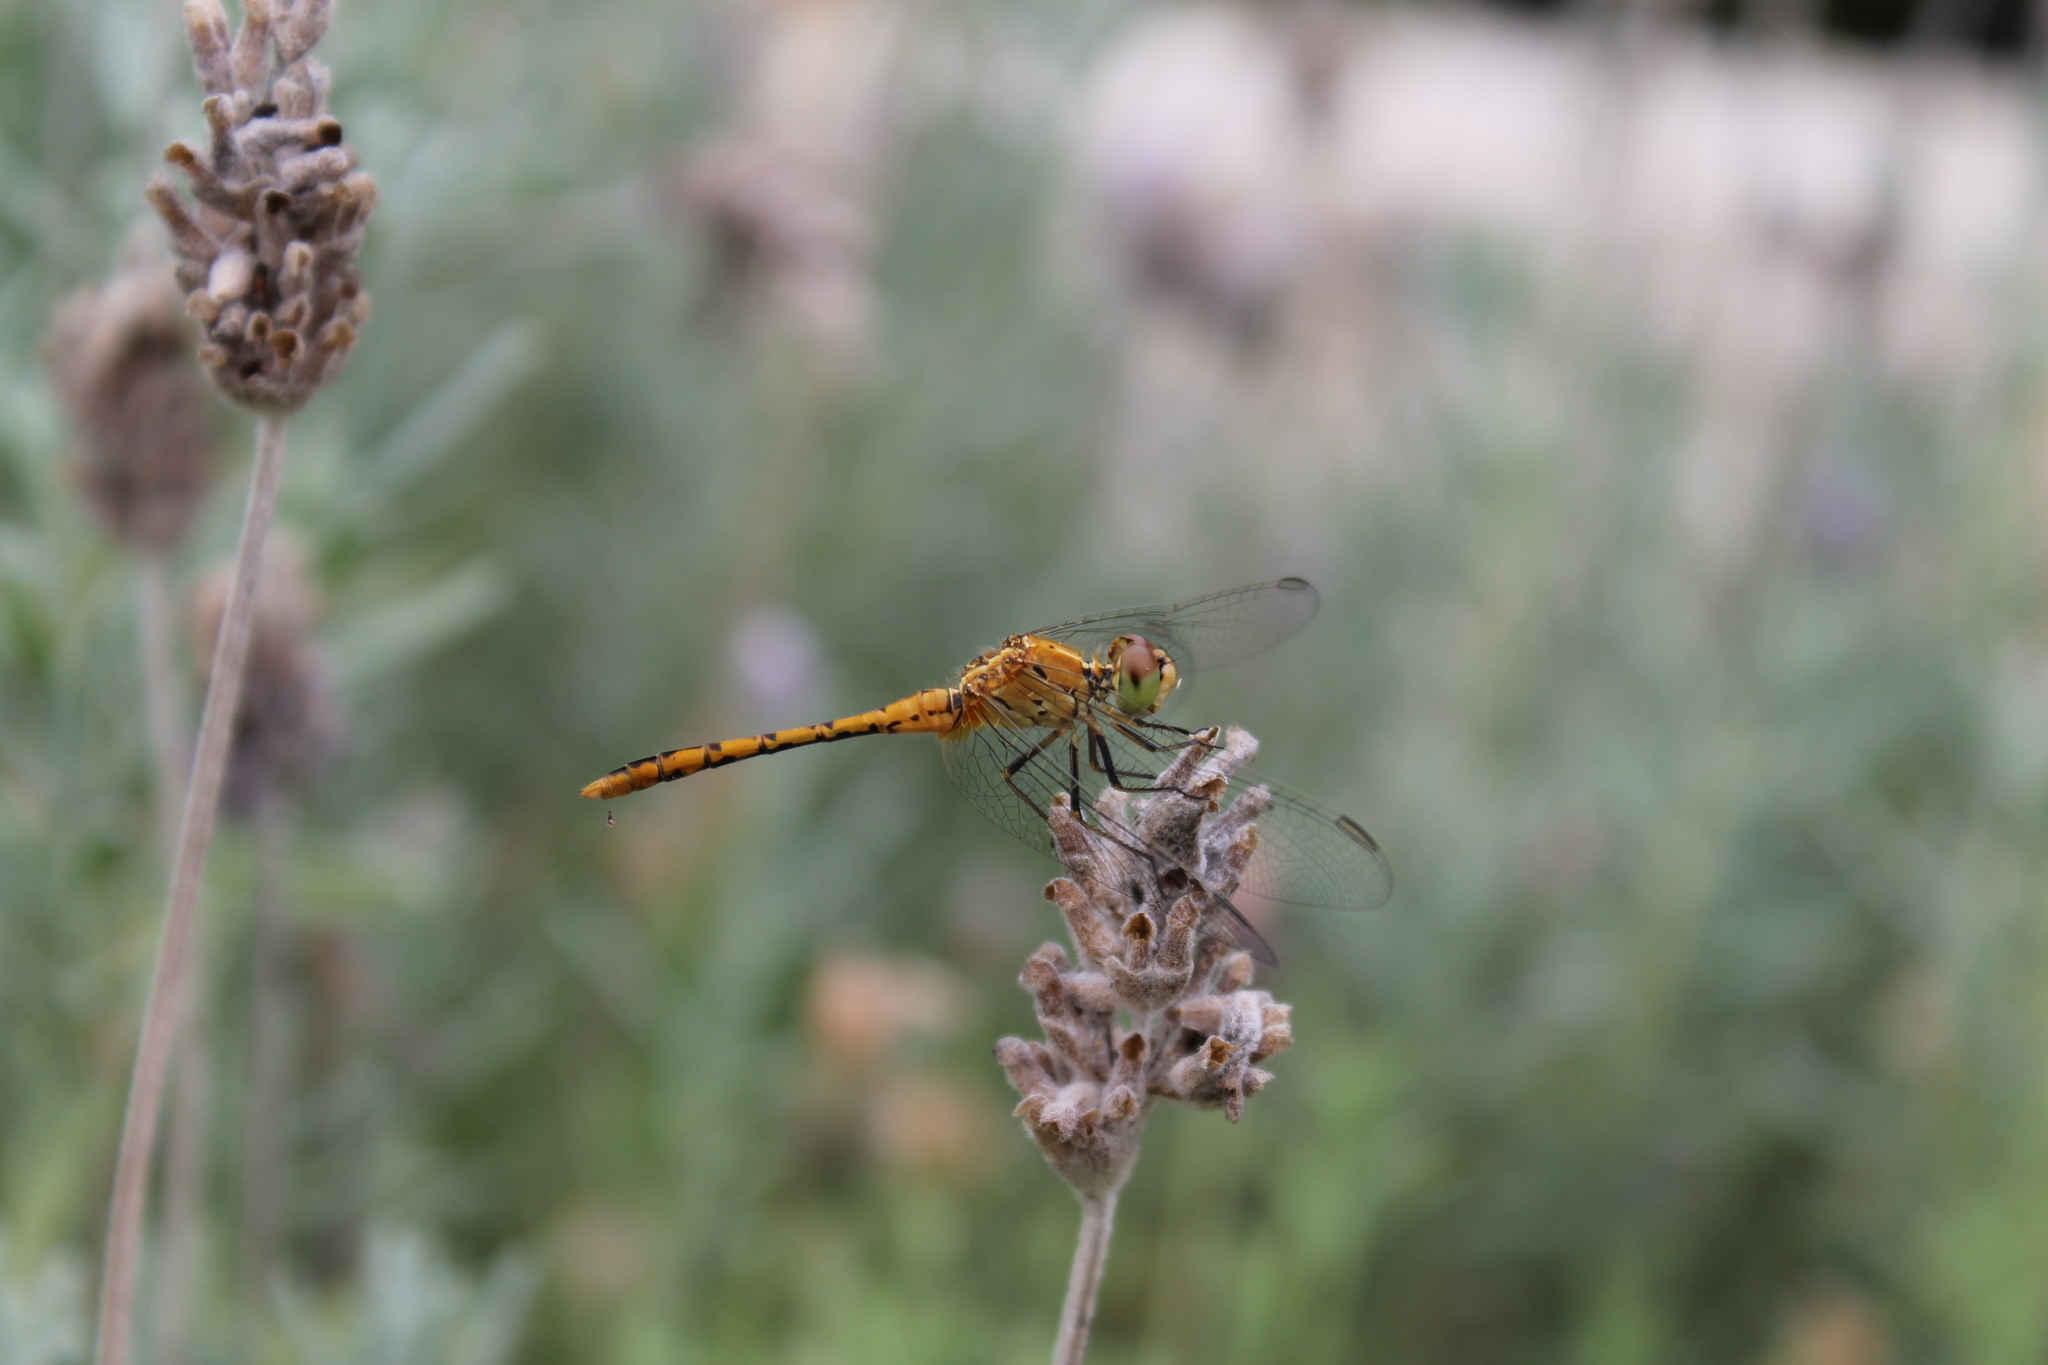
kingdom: Animalia
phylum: Arthropoda
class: Insecta
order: Odonata
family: Libellulidae
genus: Diplacodes
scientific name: Diplacodes bipunctata
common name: Red percher dragonfly
